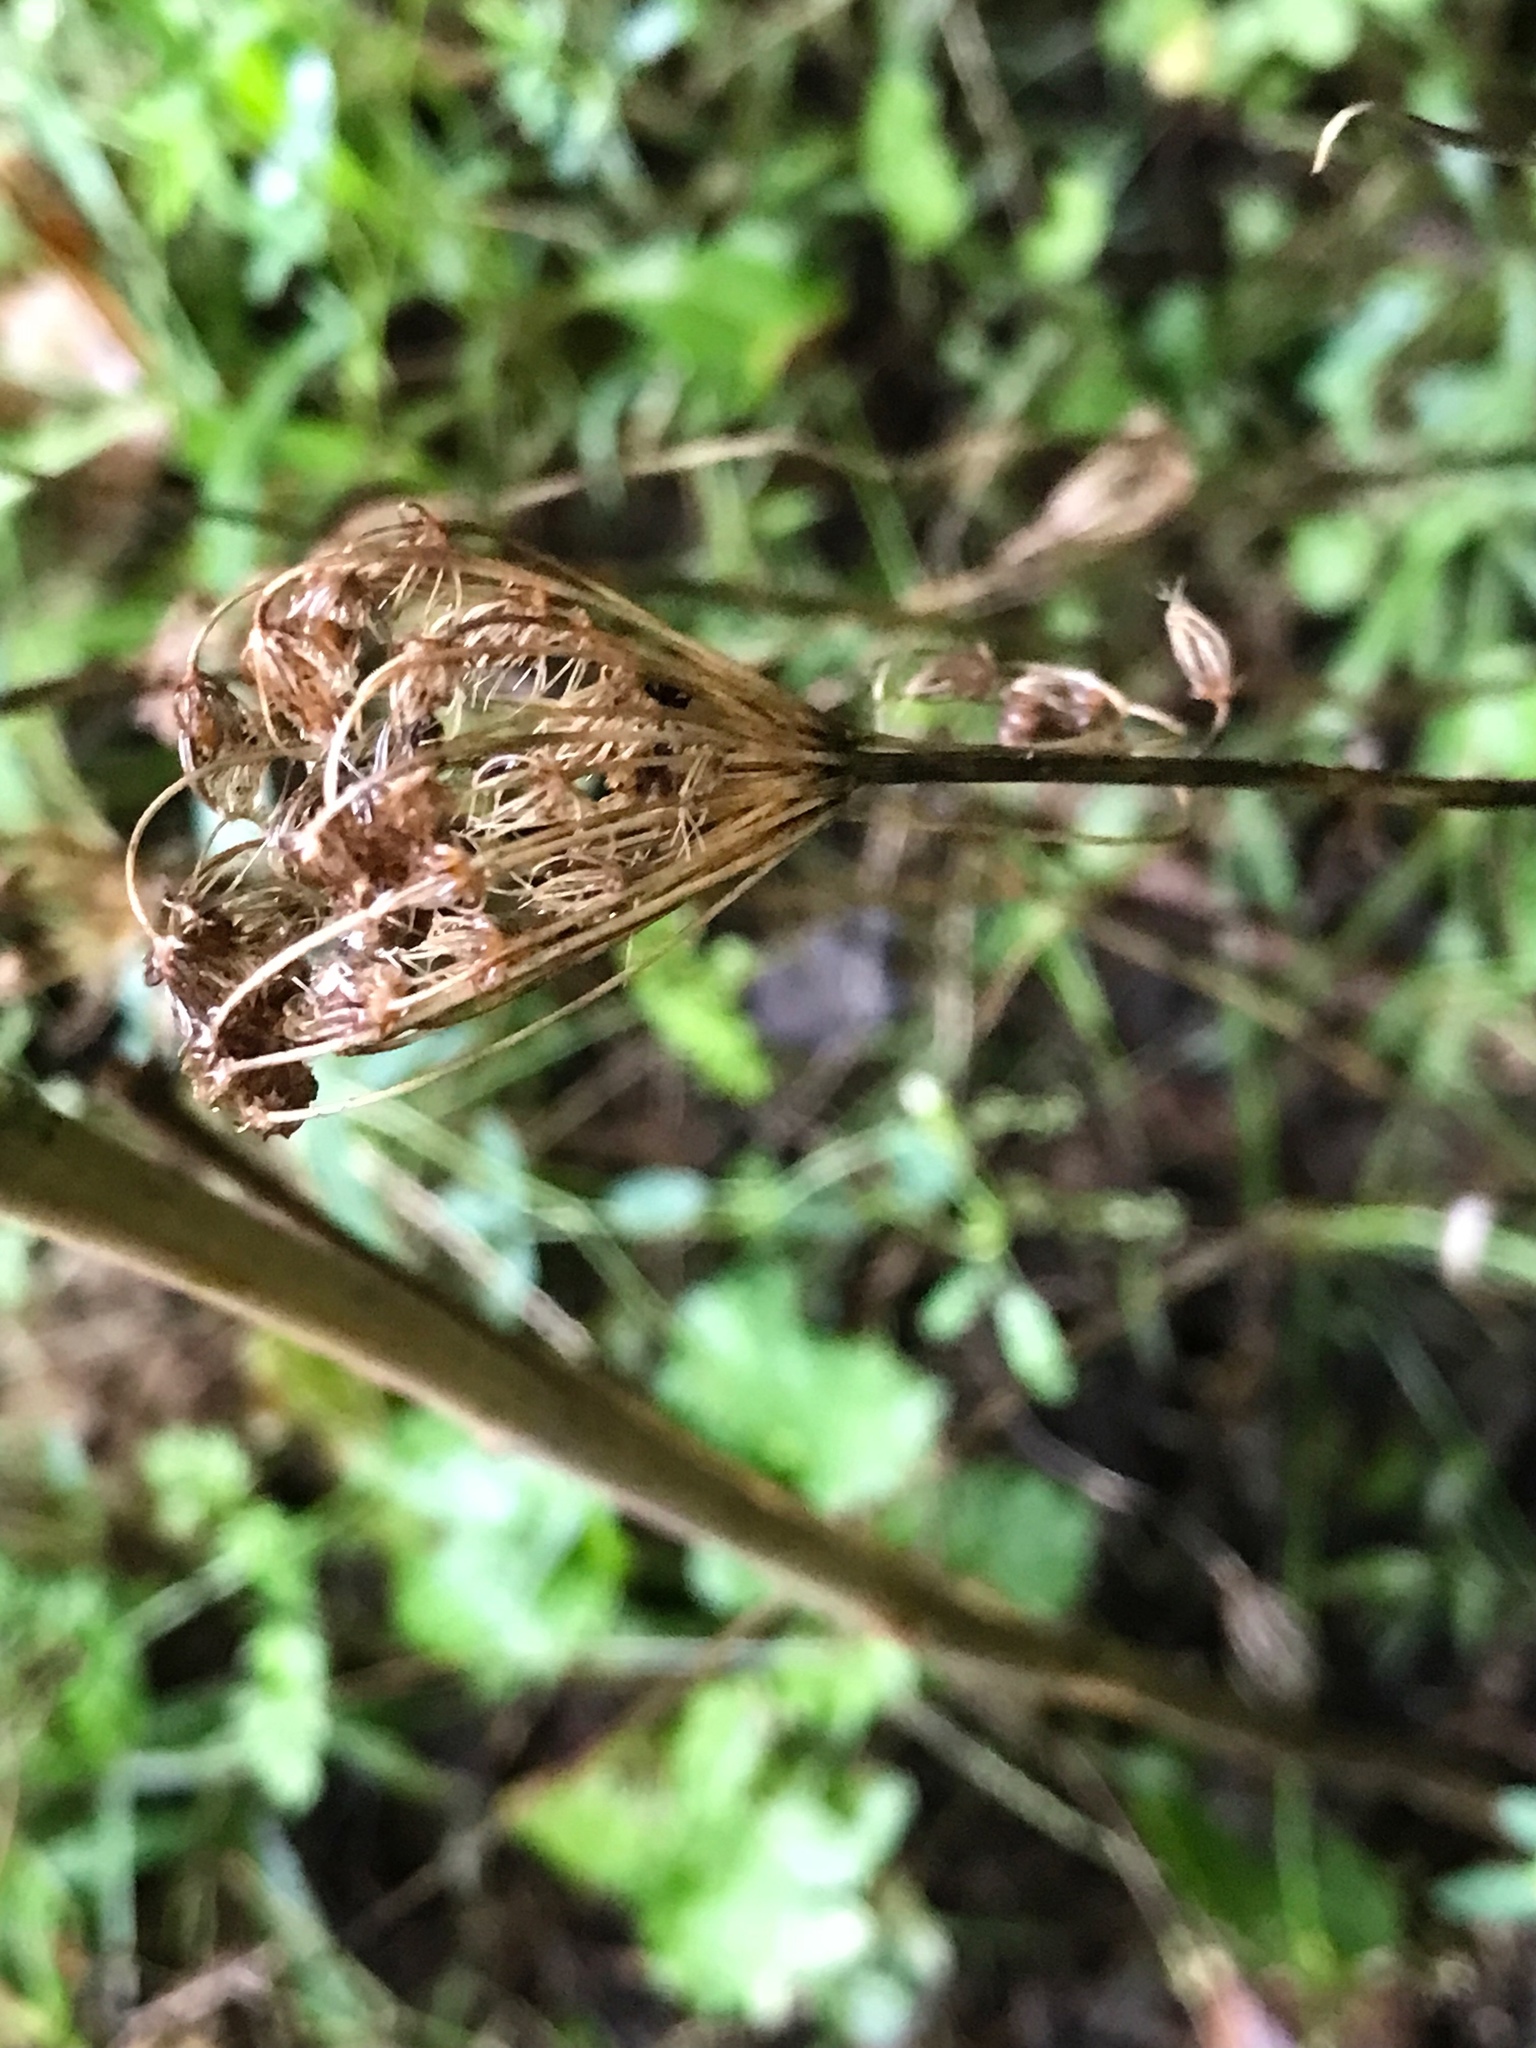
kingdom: Plantae
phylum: Tracheophyta
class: Magnoliopsida
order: Apiales
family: Apiaceae
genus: Daucus
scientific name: Daucus carota
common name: Wild carrot
